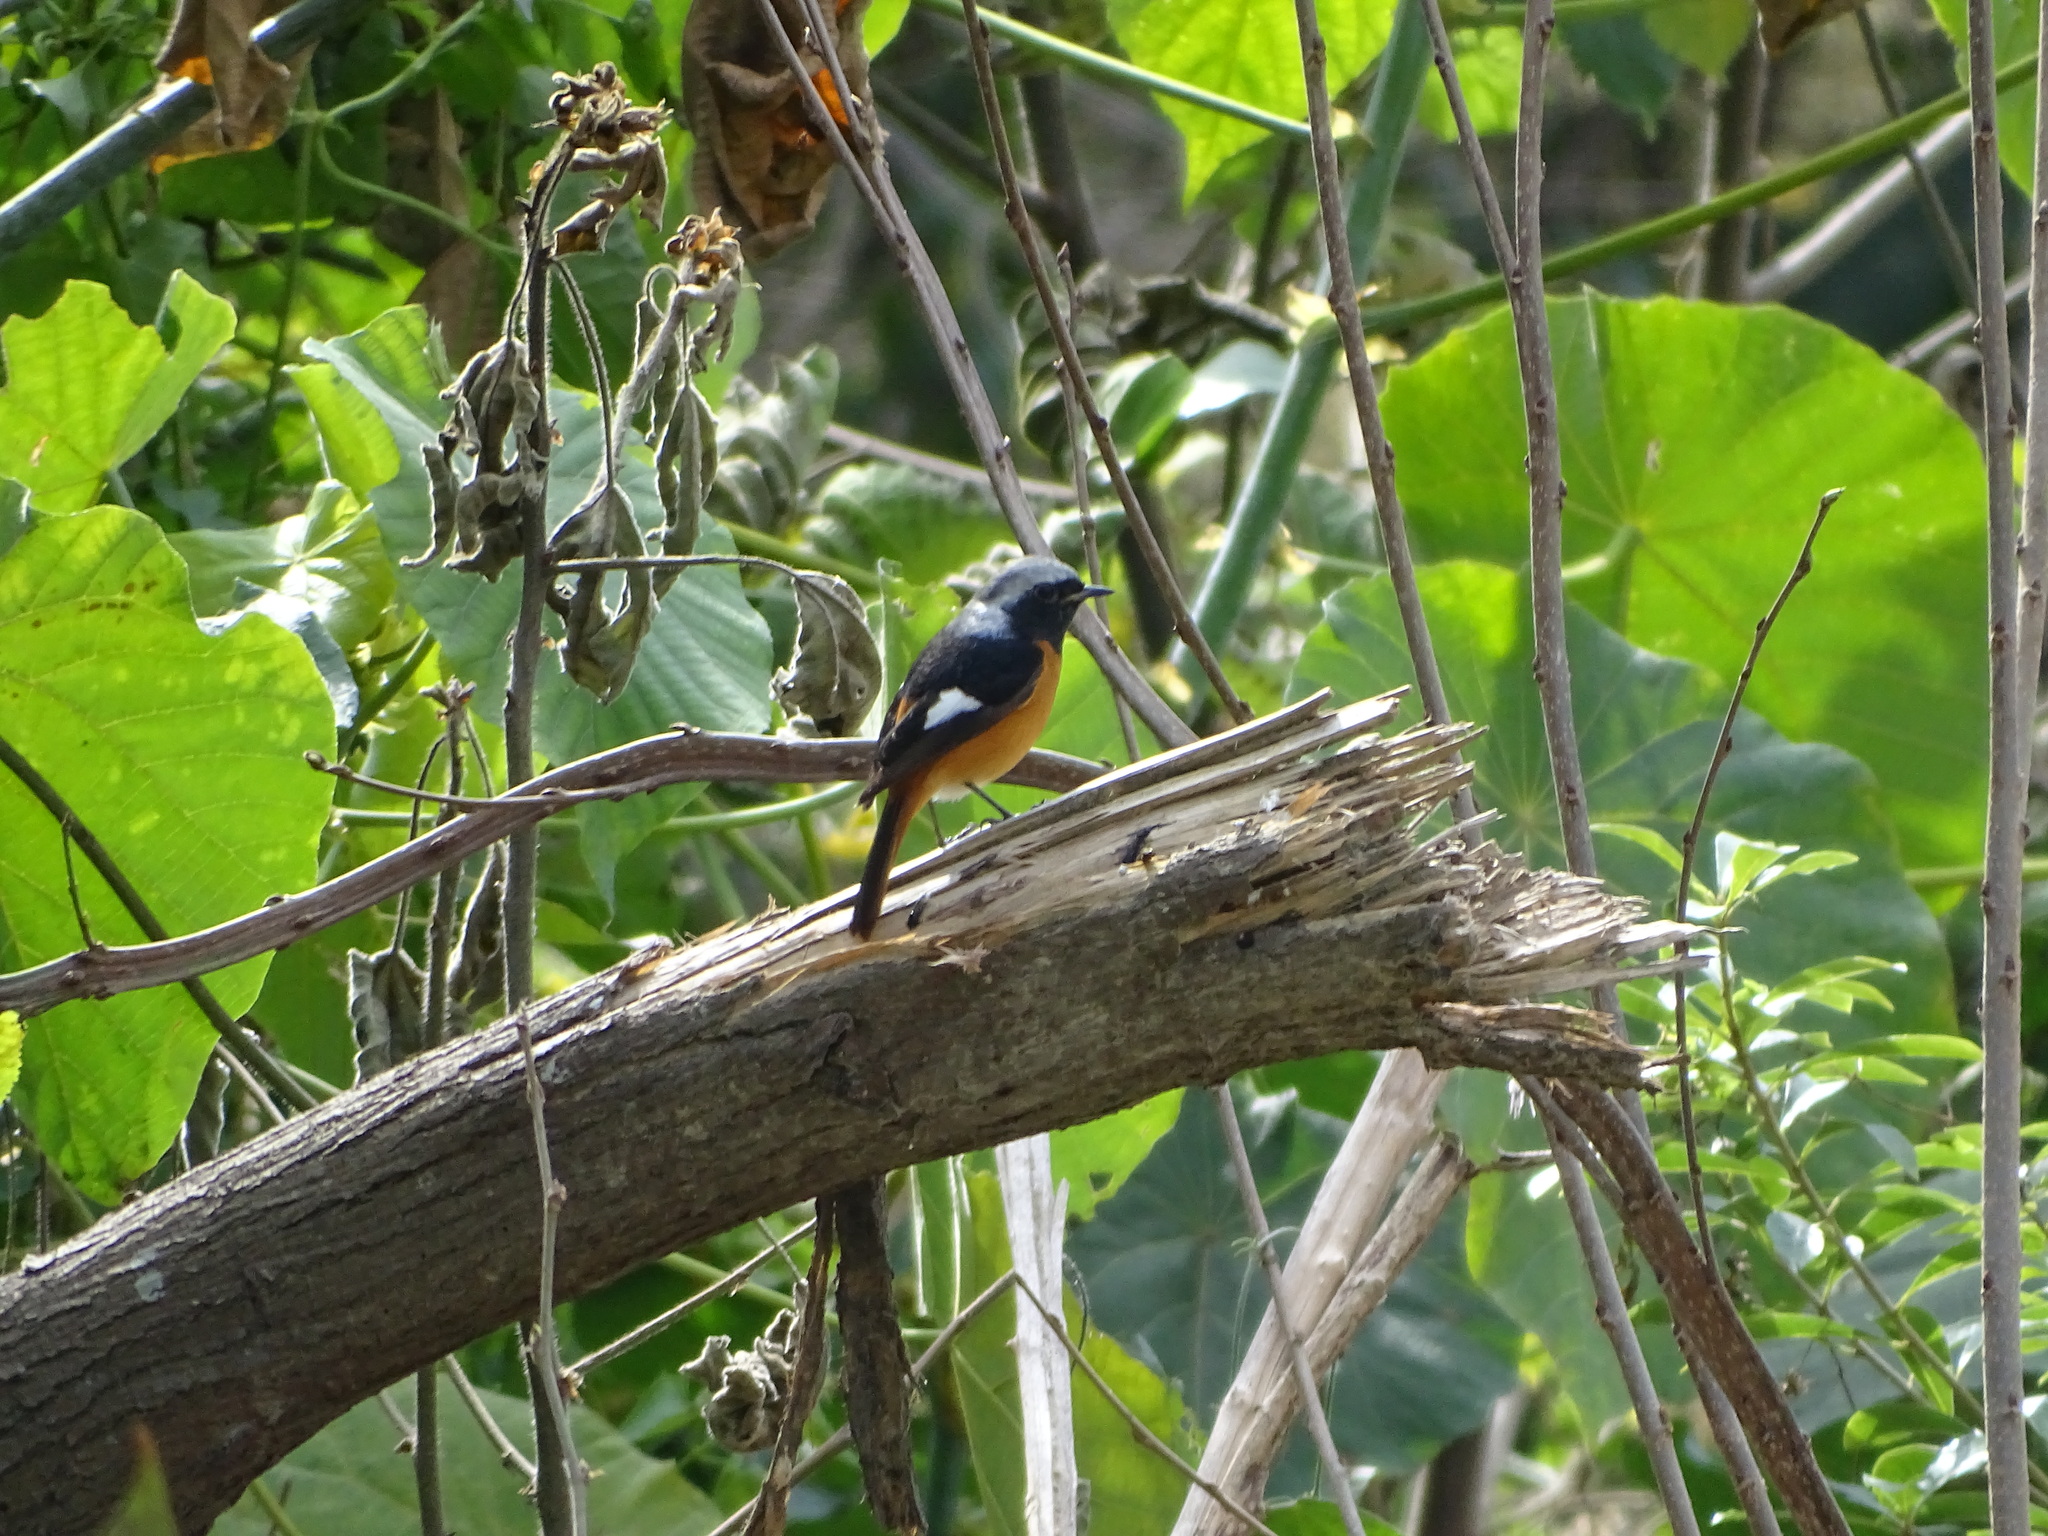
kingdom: Animalia
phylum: Chordata
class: Aves
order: Passeriformes
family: Muscicapidae
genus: Phoenicurus
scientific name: Phoenicurus auroreus
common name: Daurian redstart
